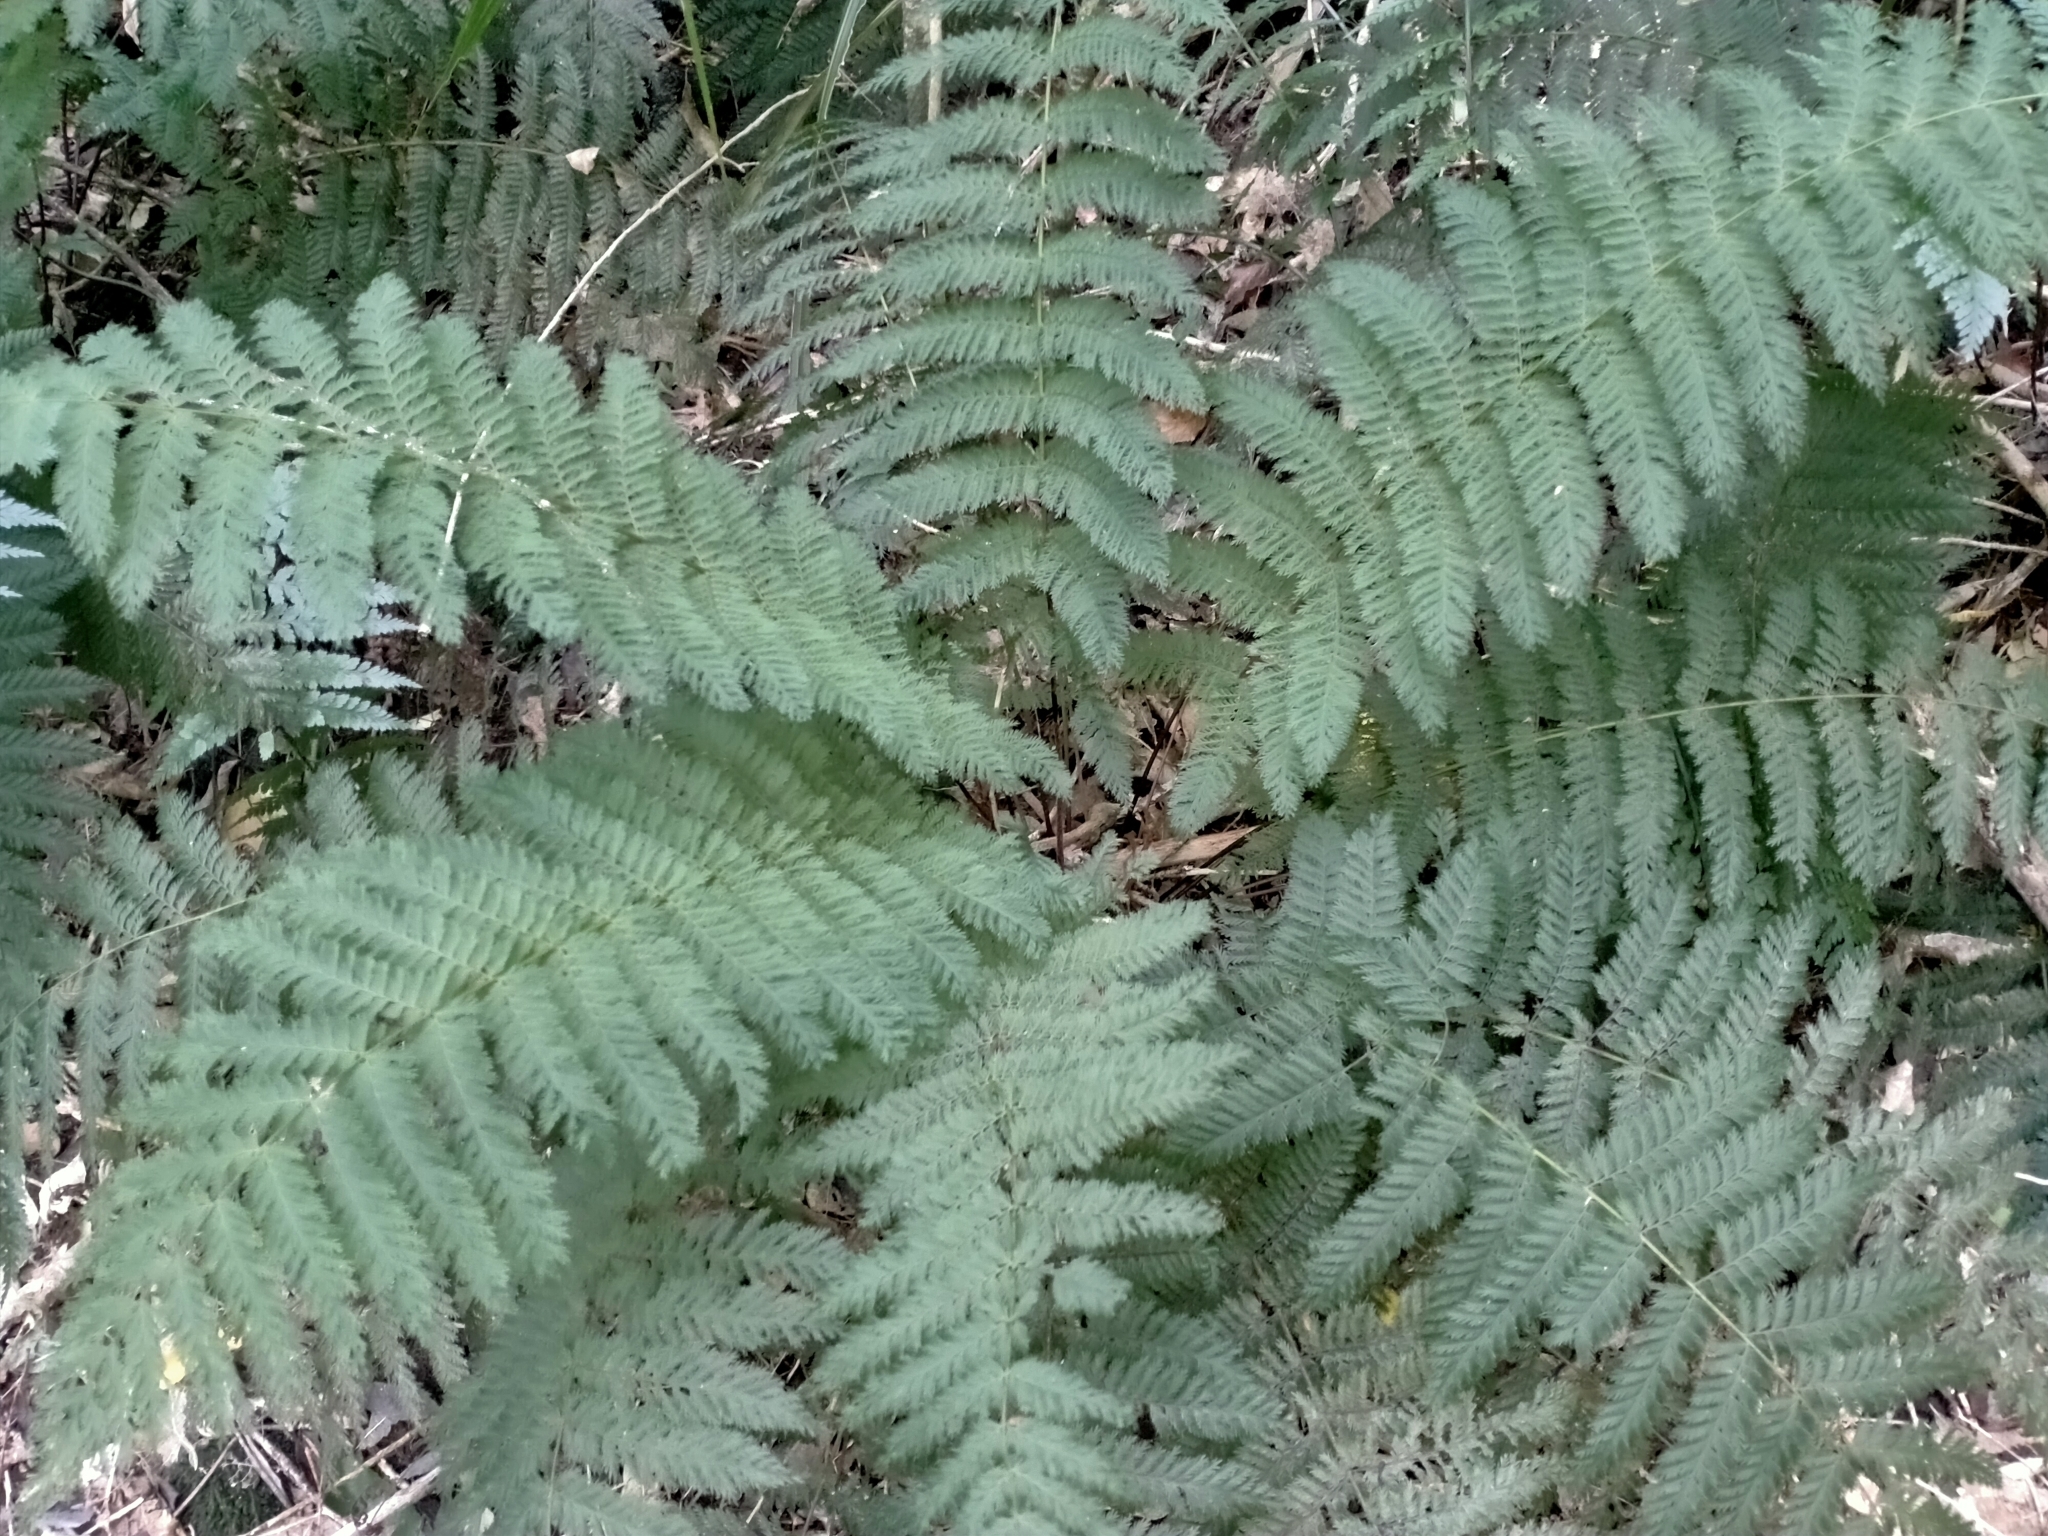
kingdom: Plantae
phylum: Tracheophyta
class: Polypodiopsida
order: Osmundales
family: Osmundaceae
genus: Leptopteris
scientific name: Leptopteris hymenophylloides
